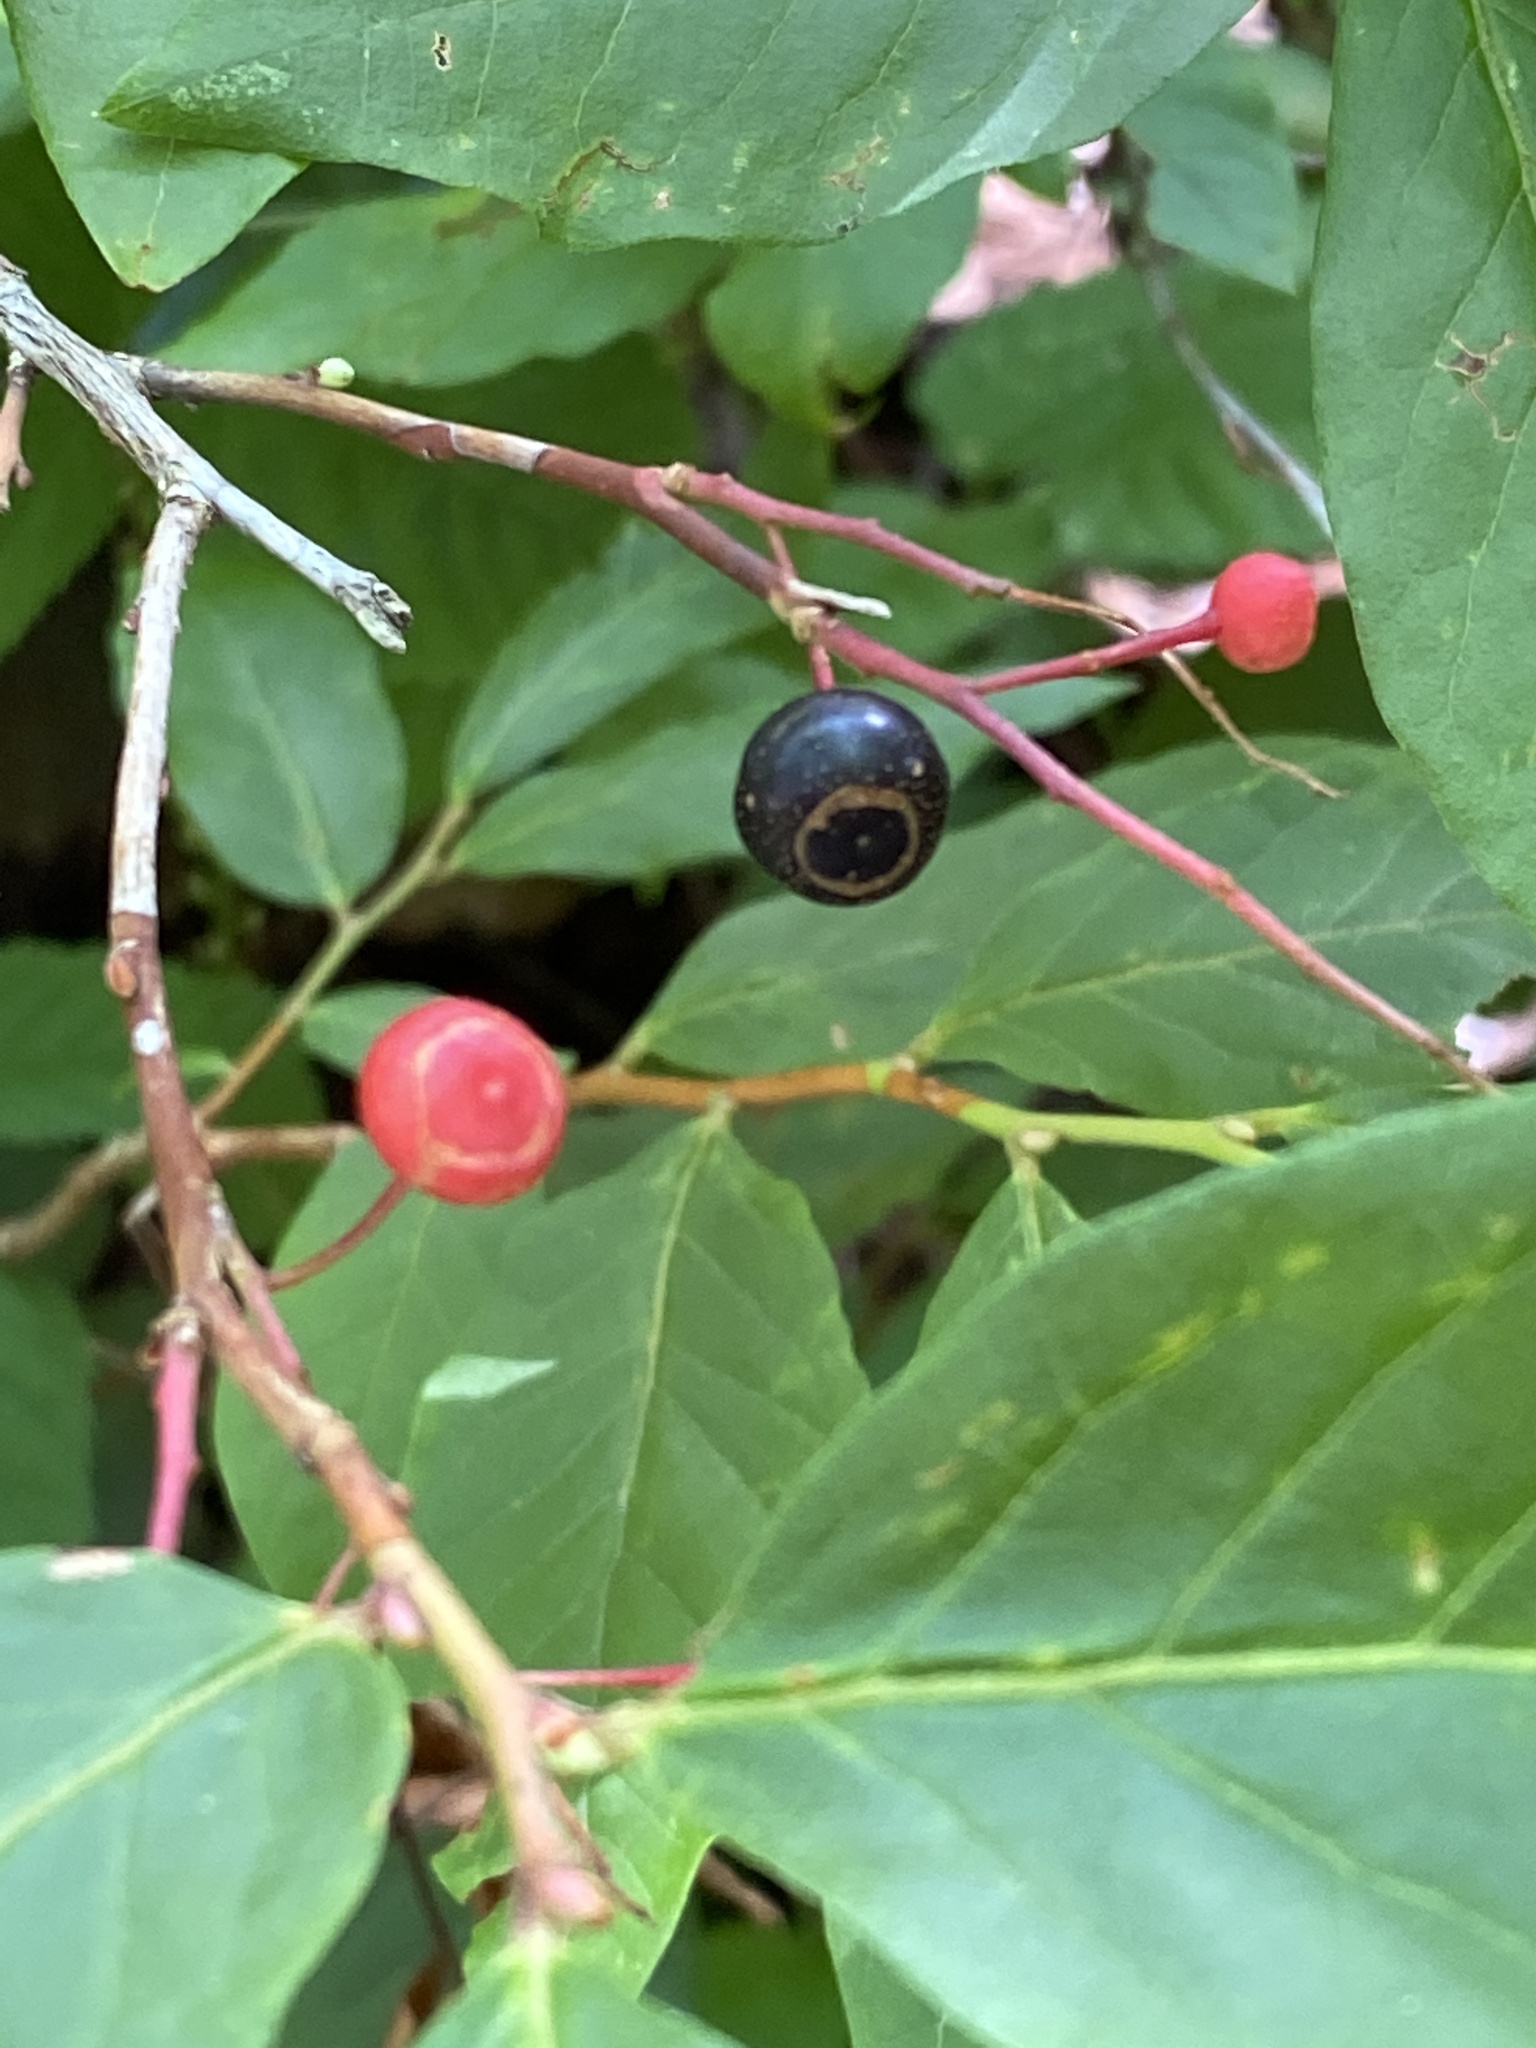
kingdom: Plantae
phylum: Tracheophyta
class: Magnoliopsida
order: Ericales
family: Ericaceae
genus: Gaylussacia
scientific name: Gaylussacia ursina
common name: Bear huckleberry
